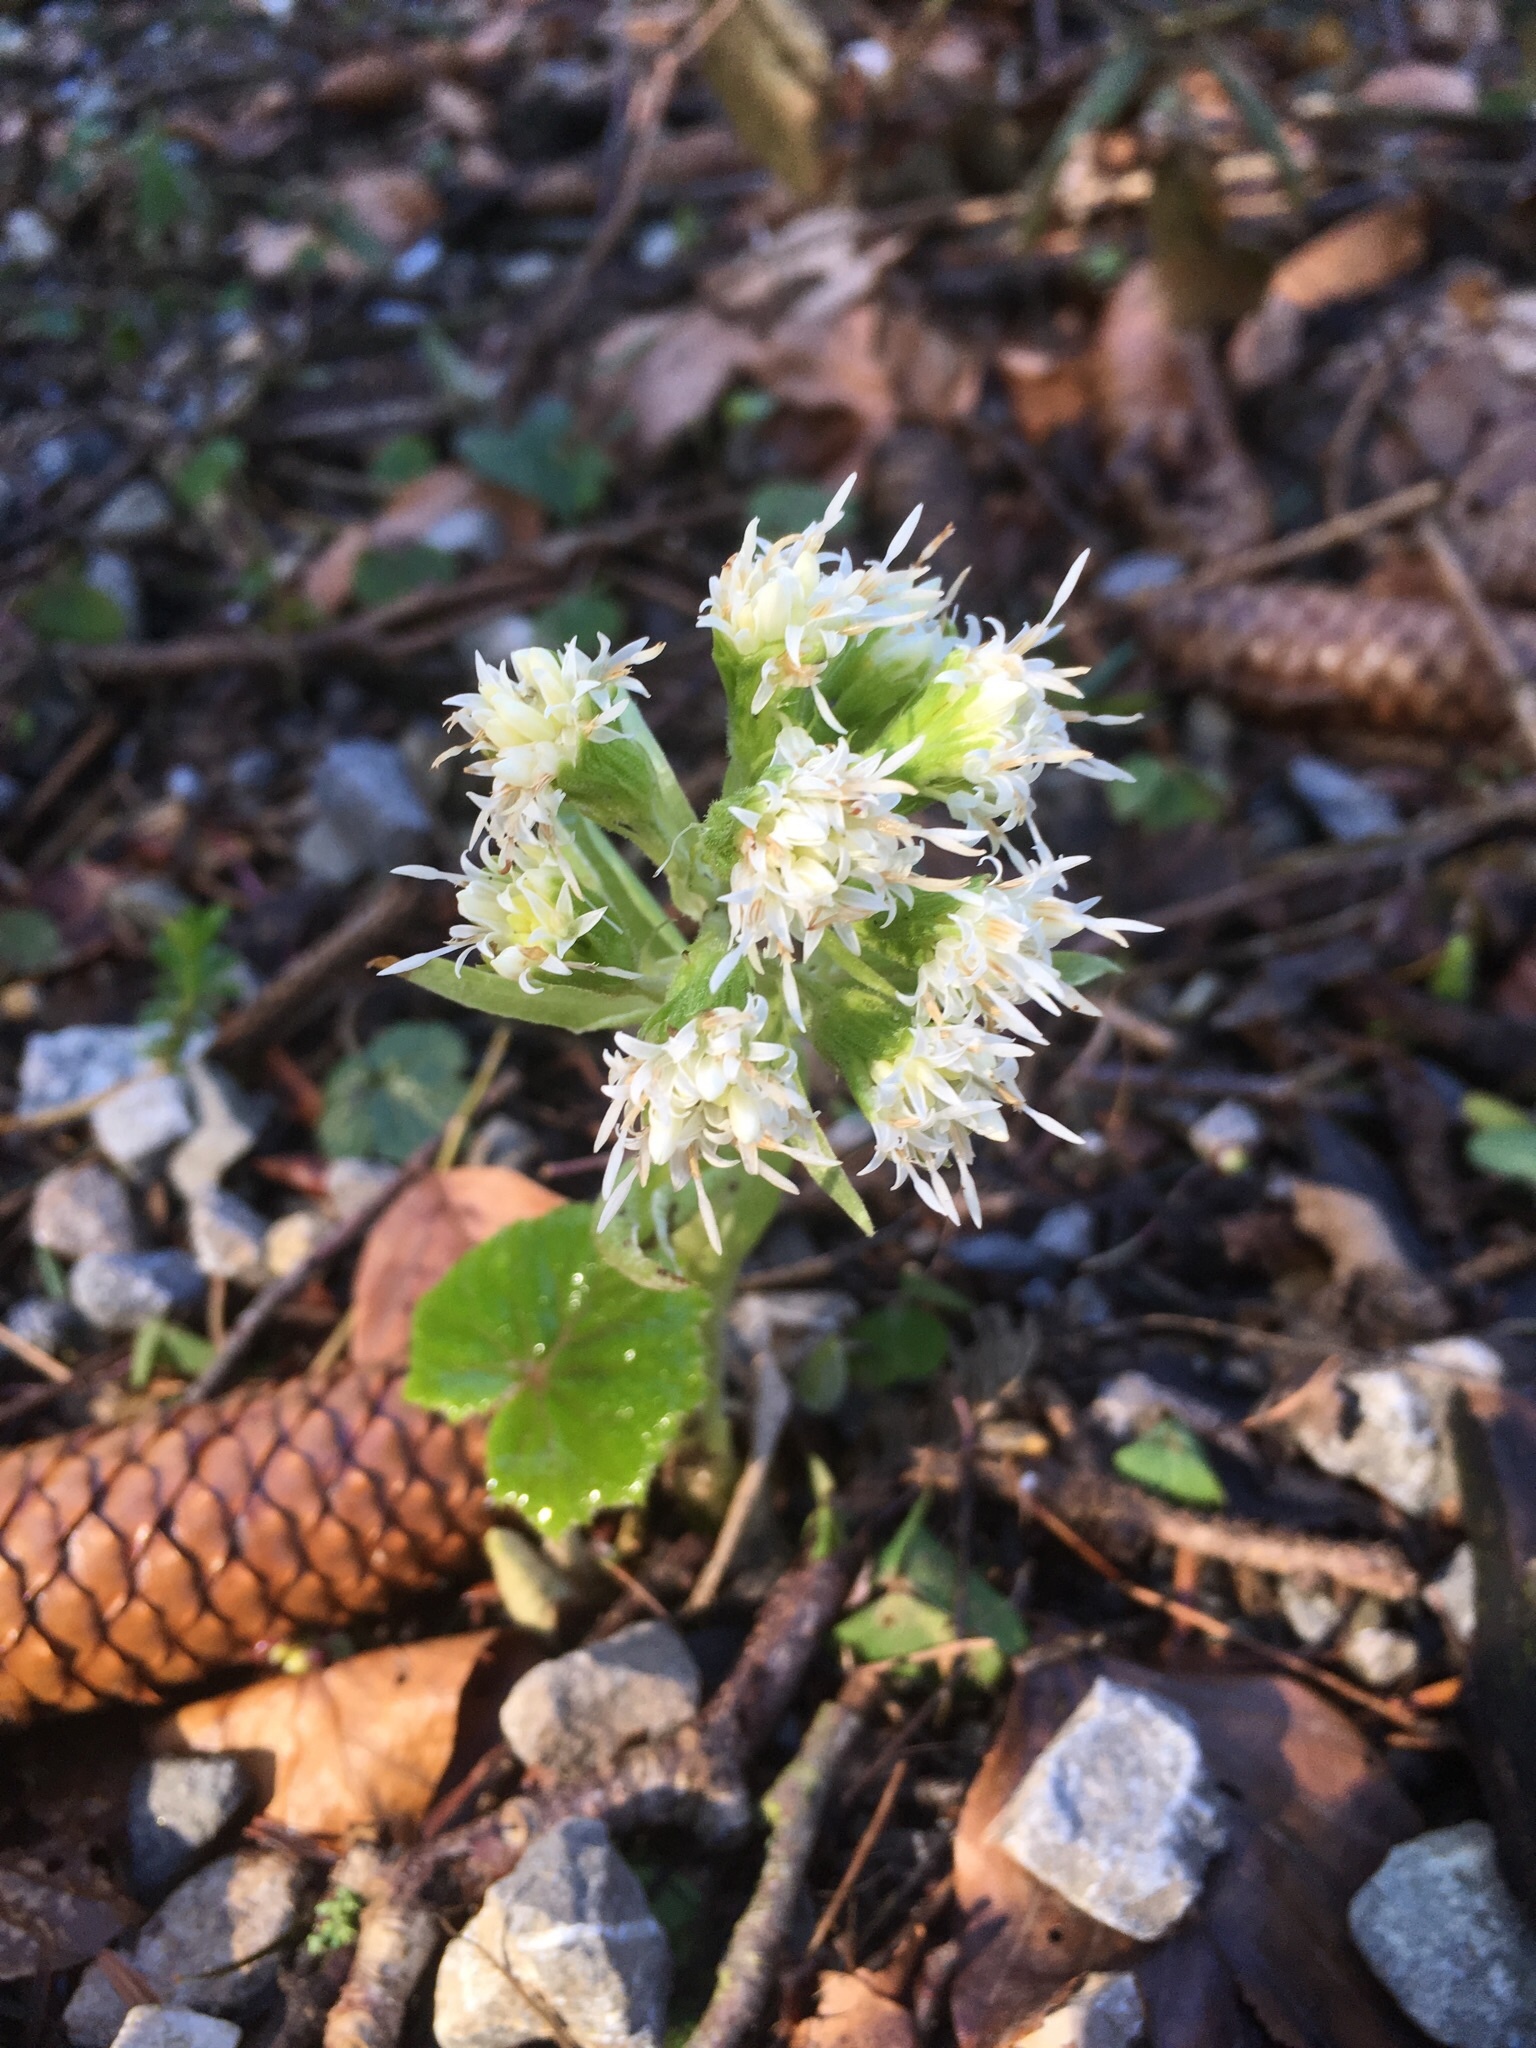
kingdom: Plantae
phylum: Tracheophyta
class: Magnoliopsida
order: Asterales
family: Asteraceae
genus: Petasites
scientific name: Petasites albus
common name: White butterbur
